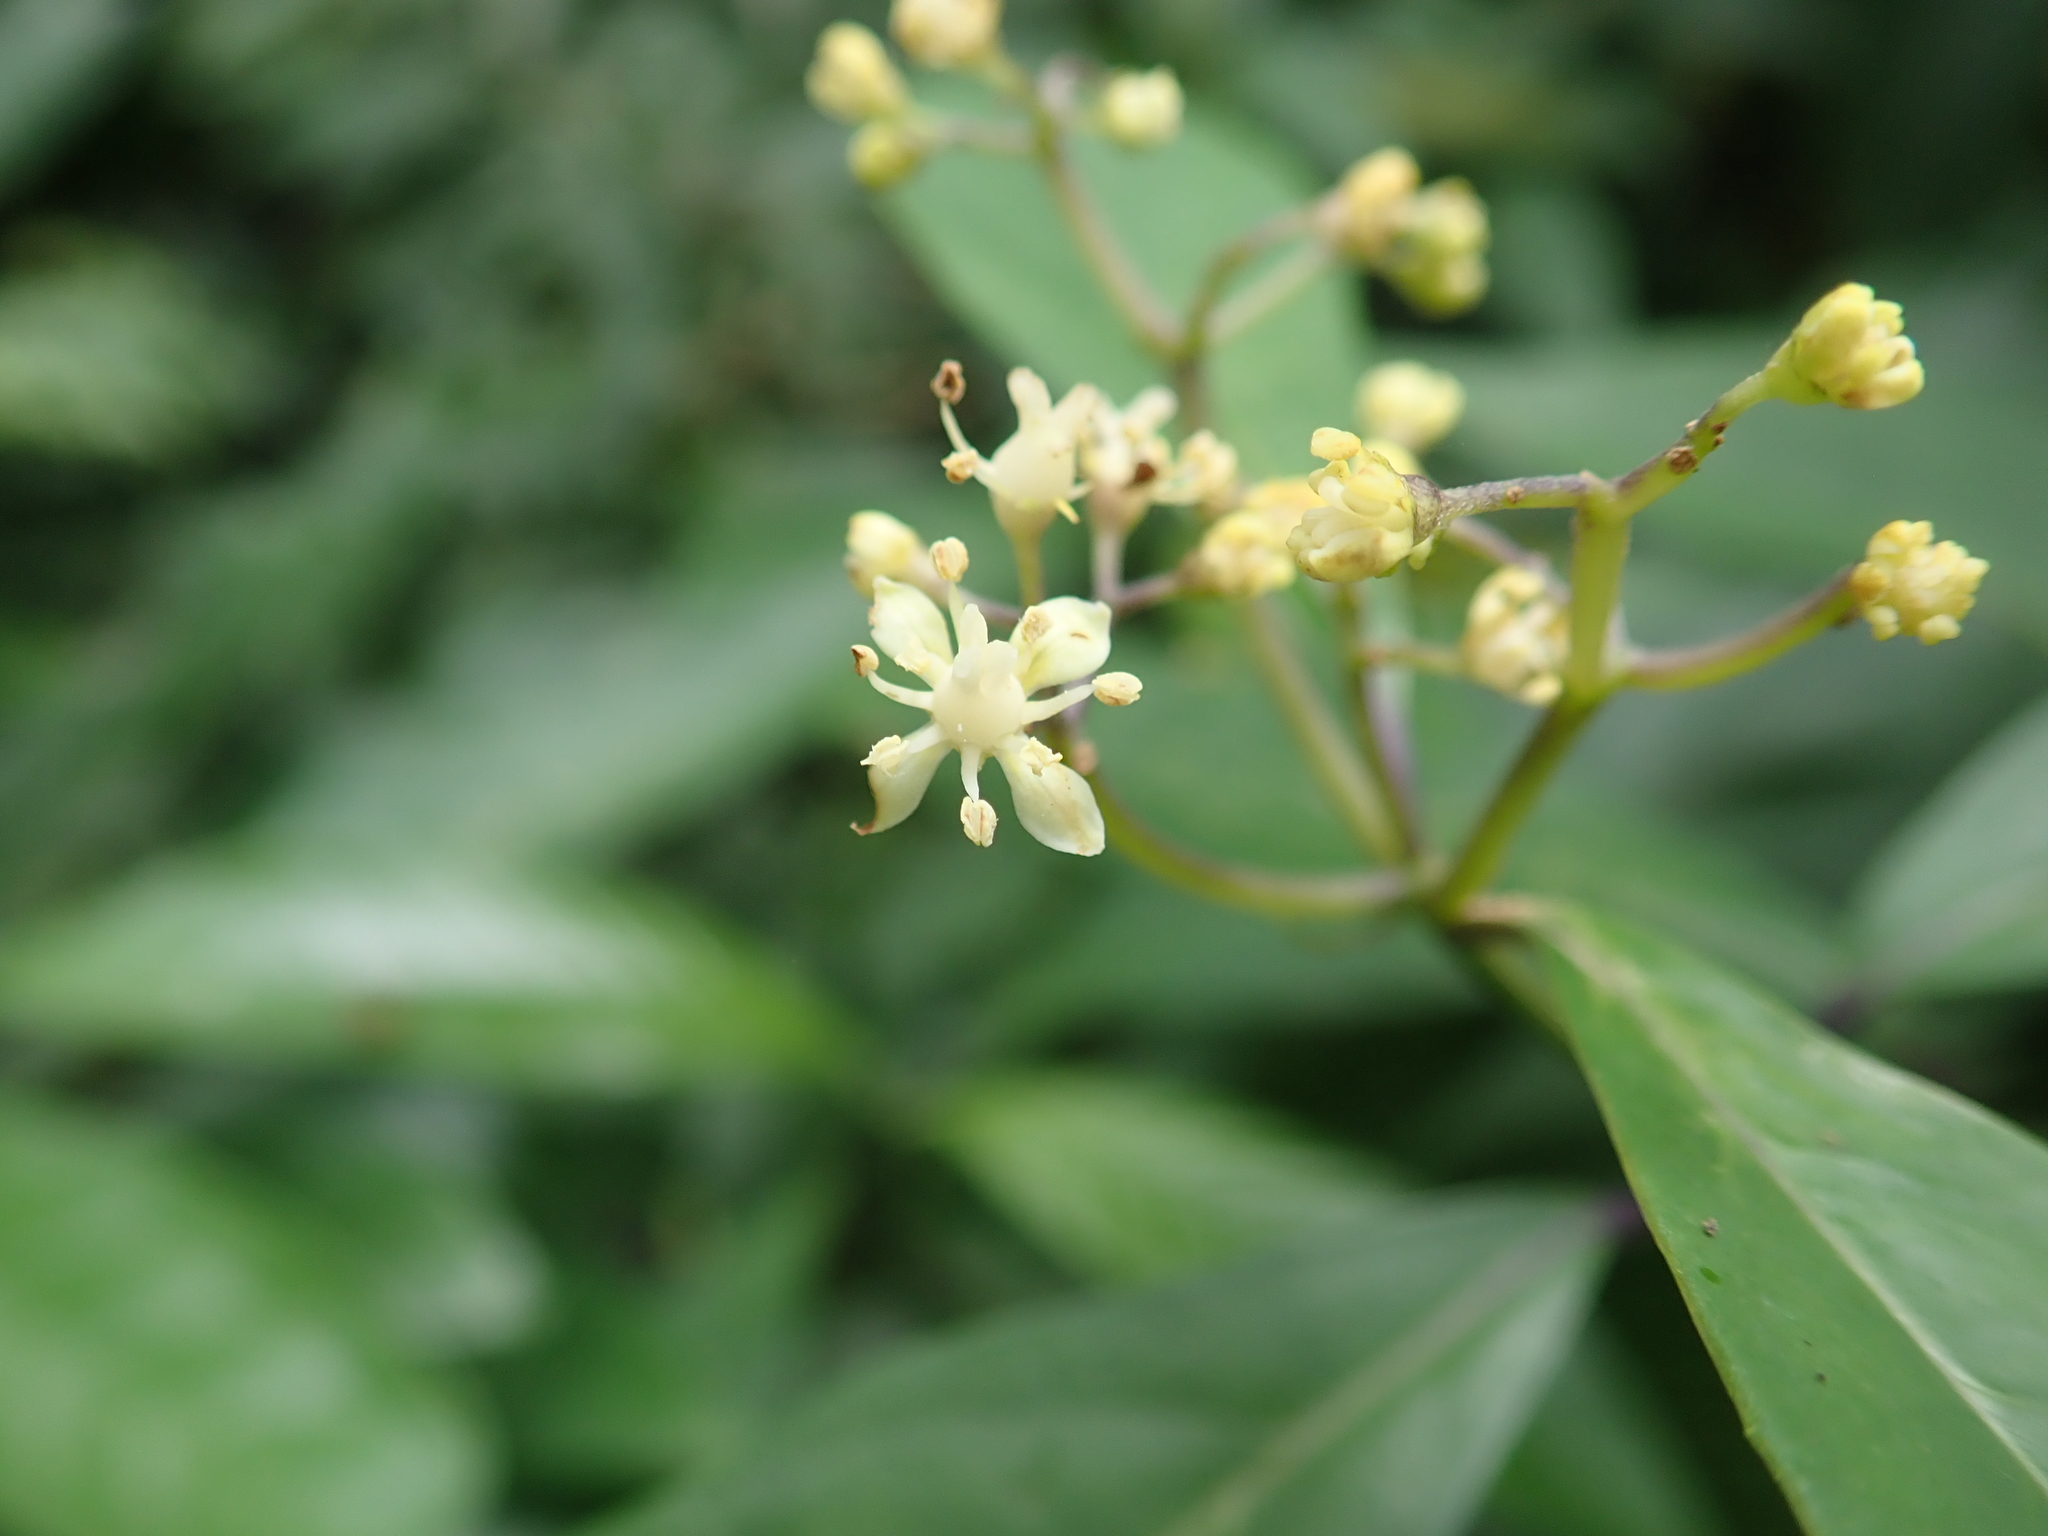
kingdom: Plantae
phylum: Tracheophyta
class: Magnoliopsida
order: Cornales
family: Hydrangeaceae
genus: Hydrangea
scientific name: Hydrangea chinensis
